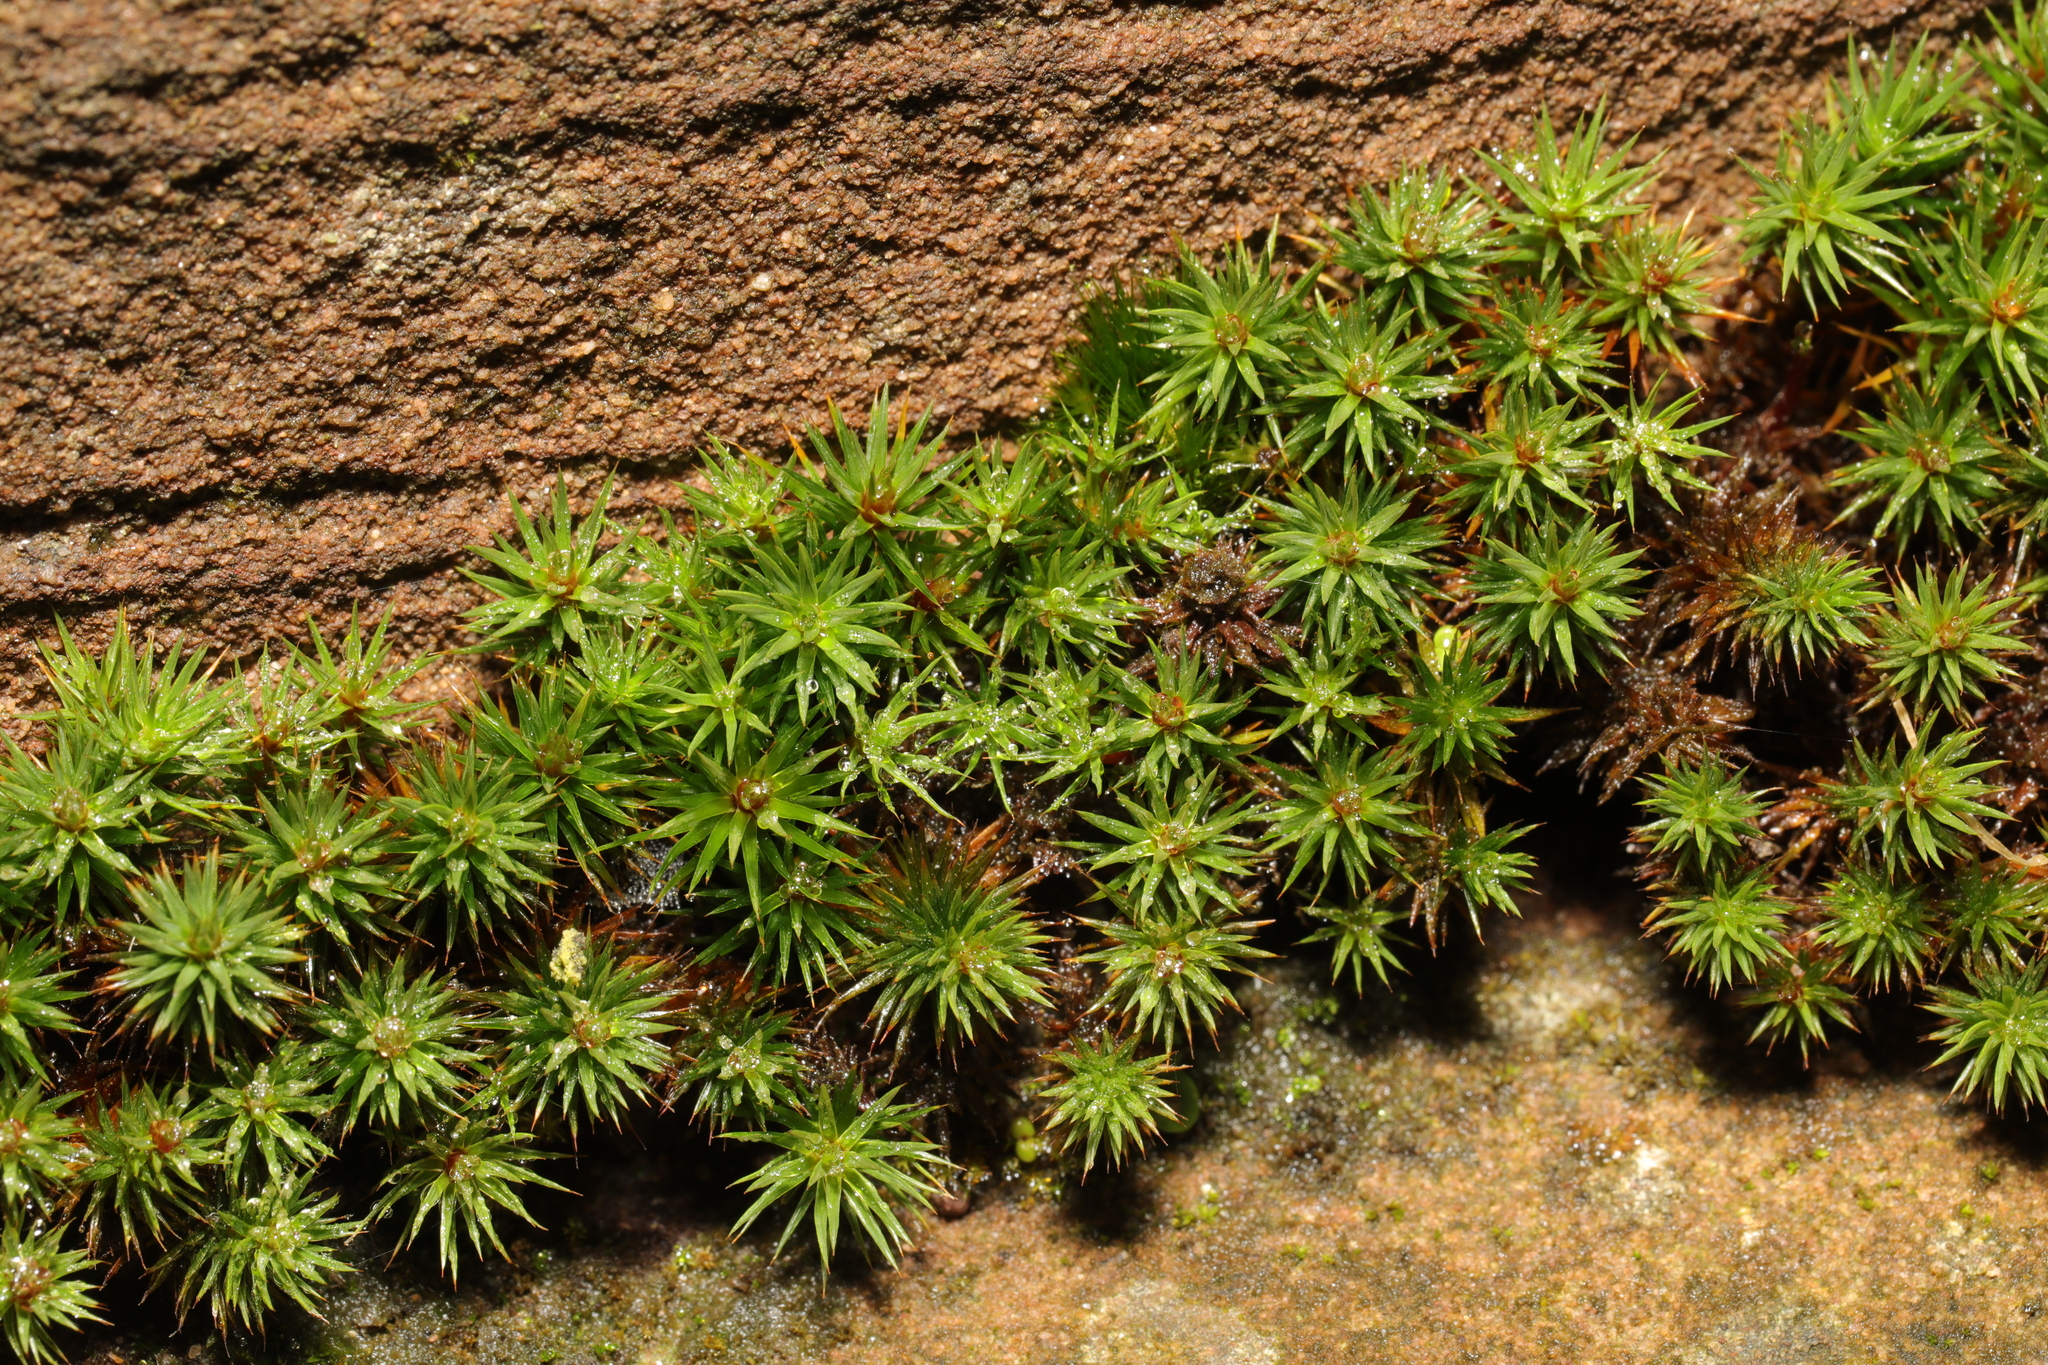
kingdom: Plantae
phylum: Bryophyta
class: Polytrichopsida
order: Polytrichales
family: Polytrichaceae
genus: Polytrichum
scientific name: Polytrichum juniperinum
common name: Juniper haircap moss
